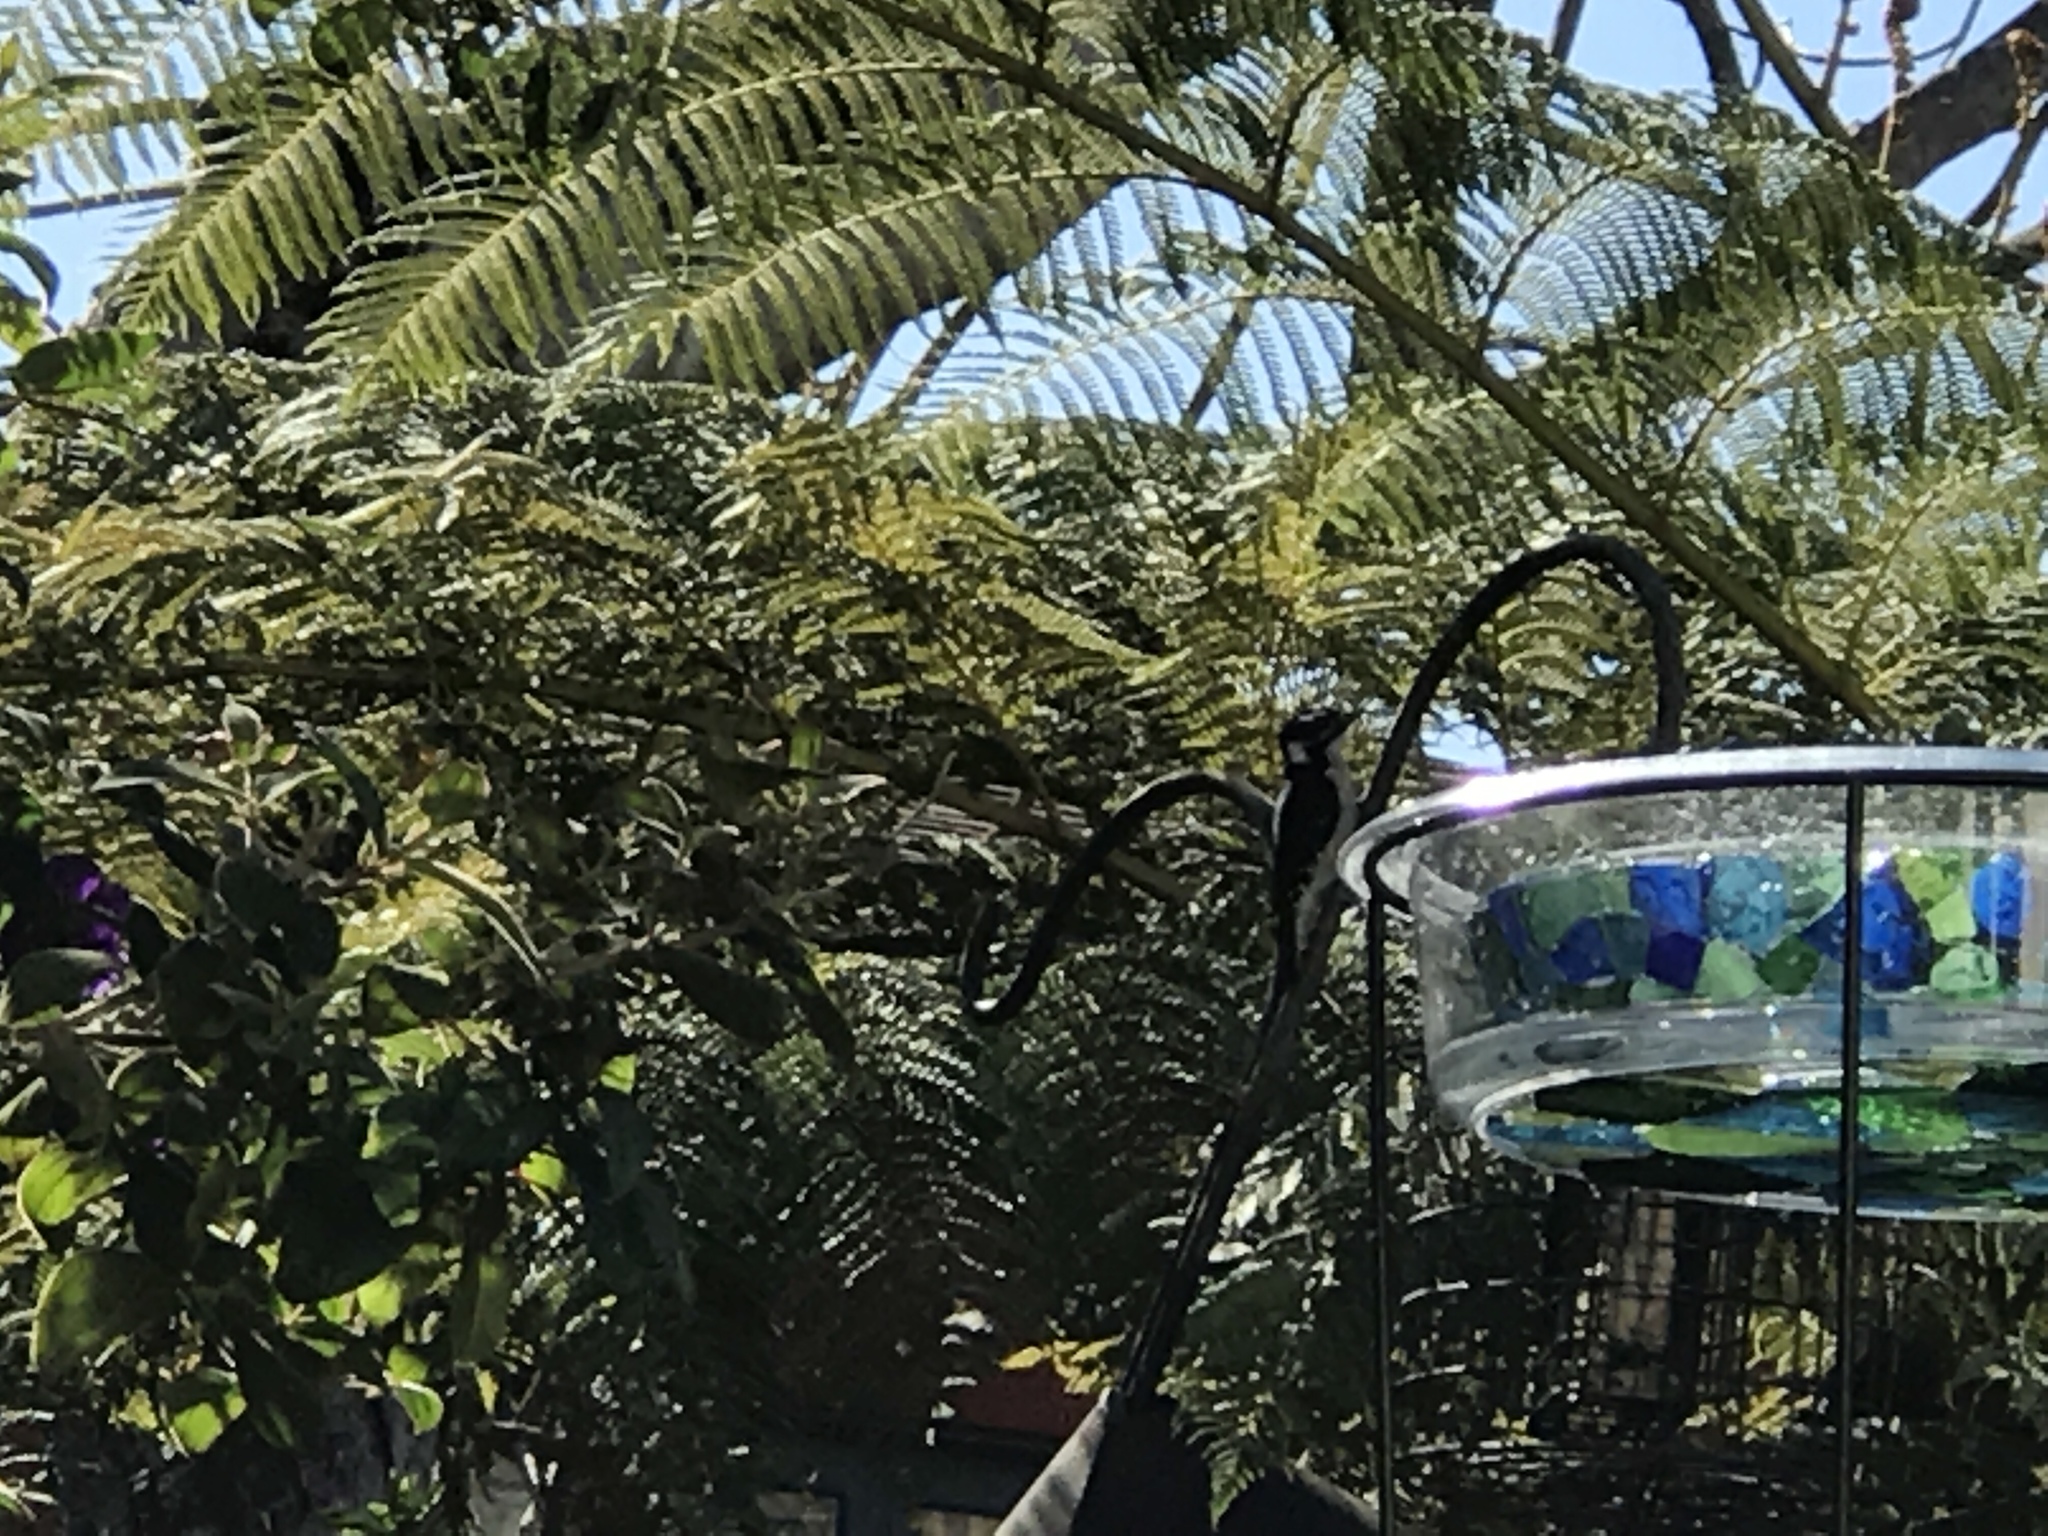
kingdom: Animalia
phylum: Chordata
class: Aves
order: Piciformes
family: Picidae
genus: Dryobates
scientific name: Dryobates pubescens
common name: Downy woodpecker
